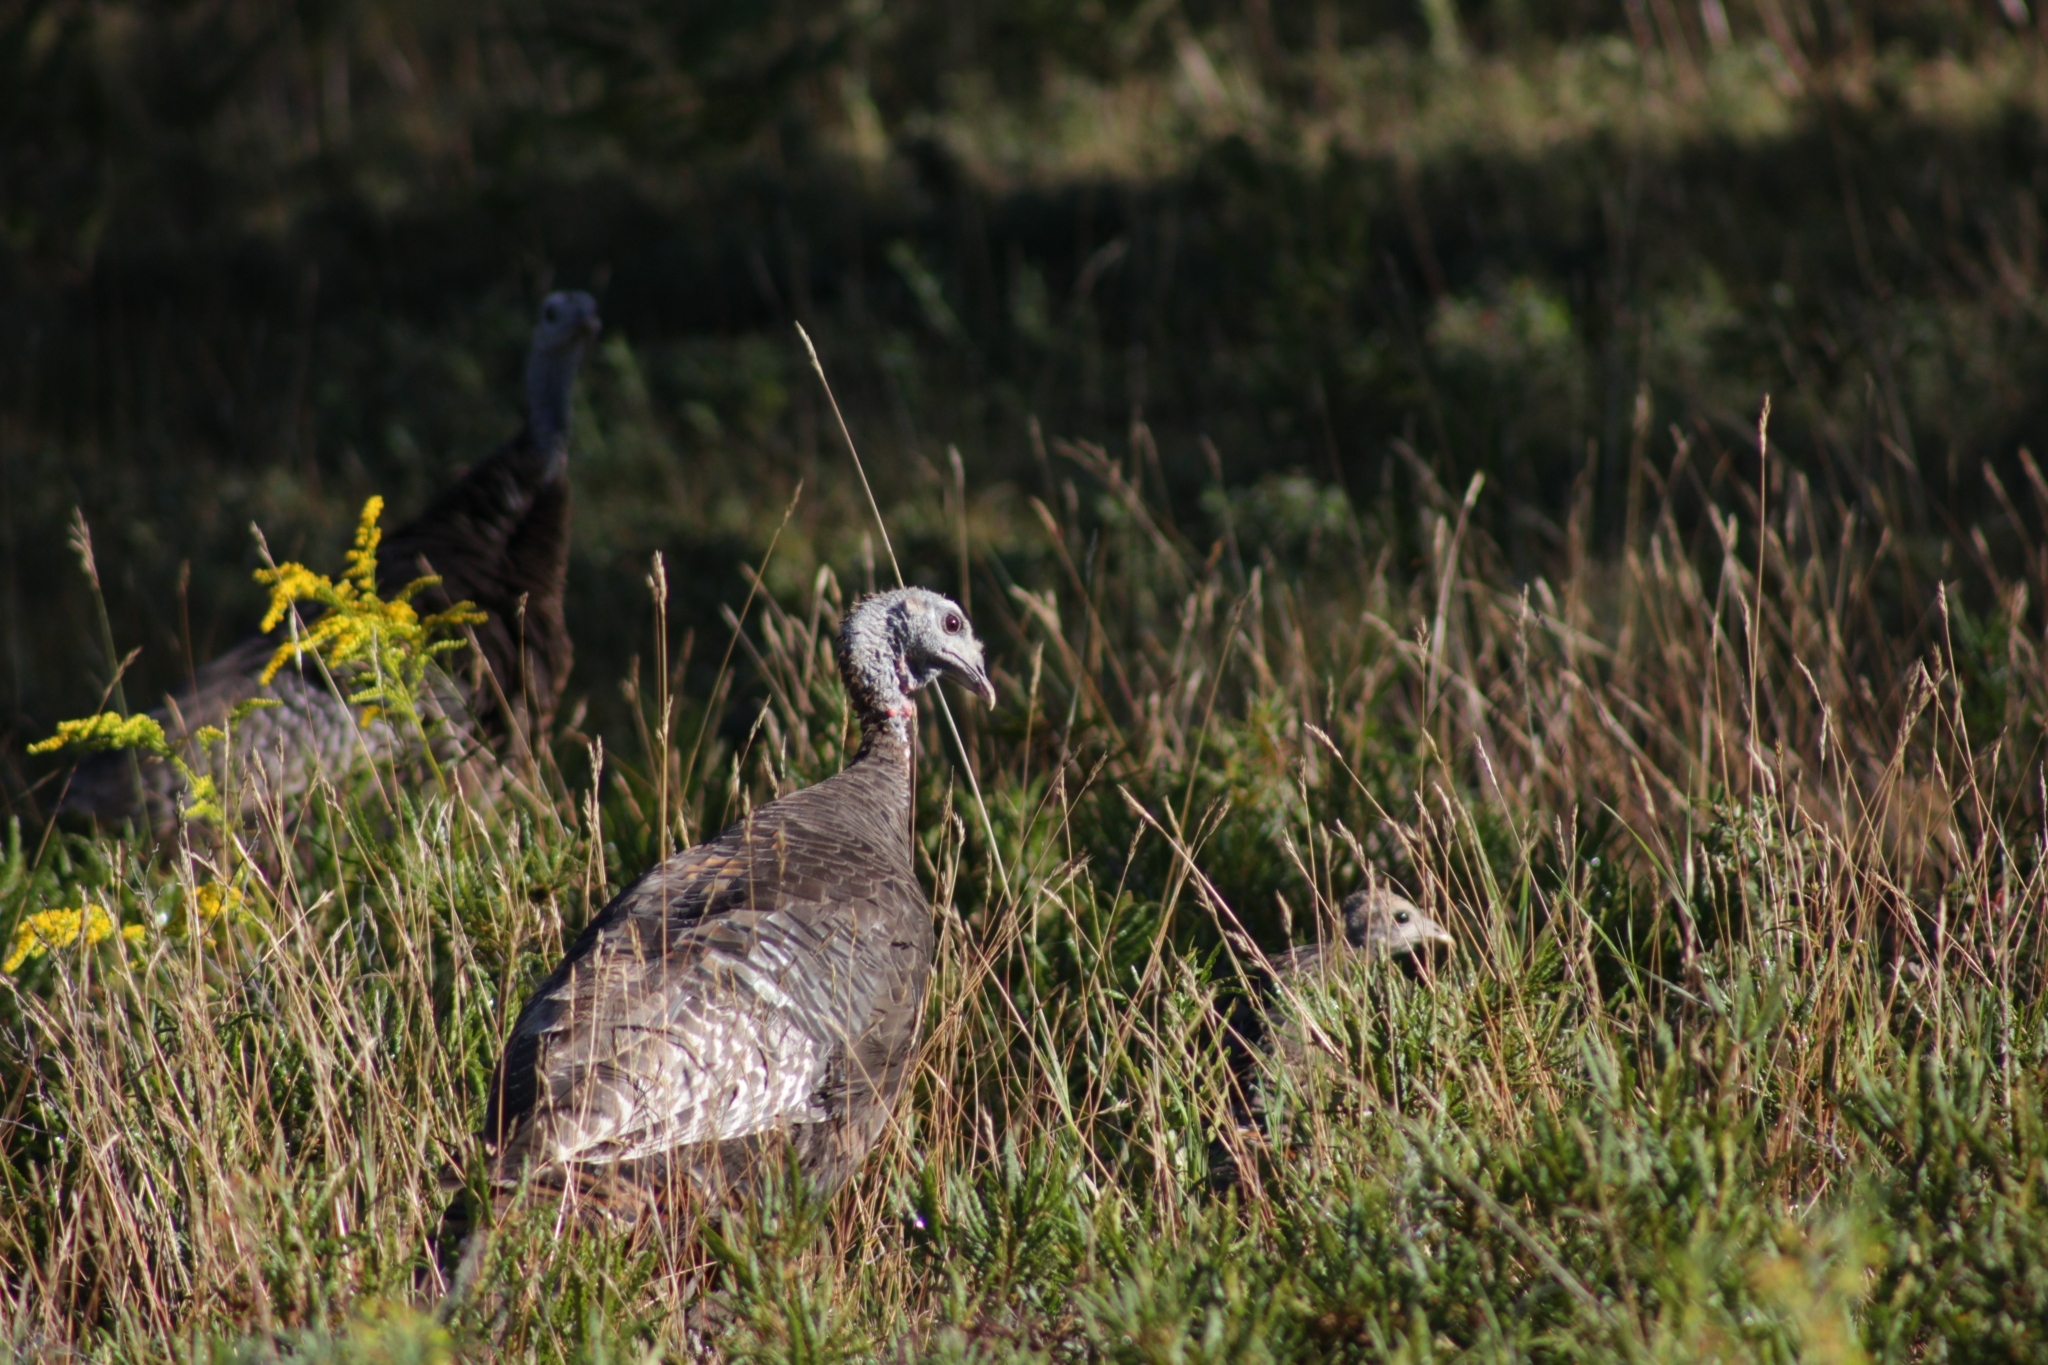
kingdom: Animalia
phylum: Chordata
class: Aves
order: Galliformes
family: Phasianidae
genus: Meleagris
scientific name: Meleagris gallopavo
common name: Wild turkey
